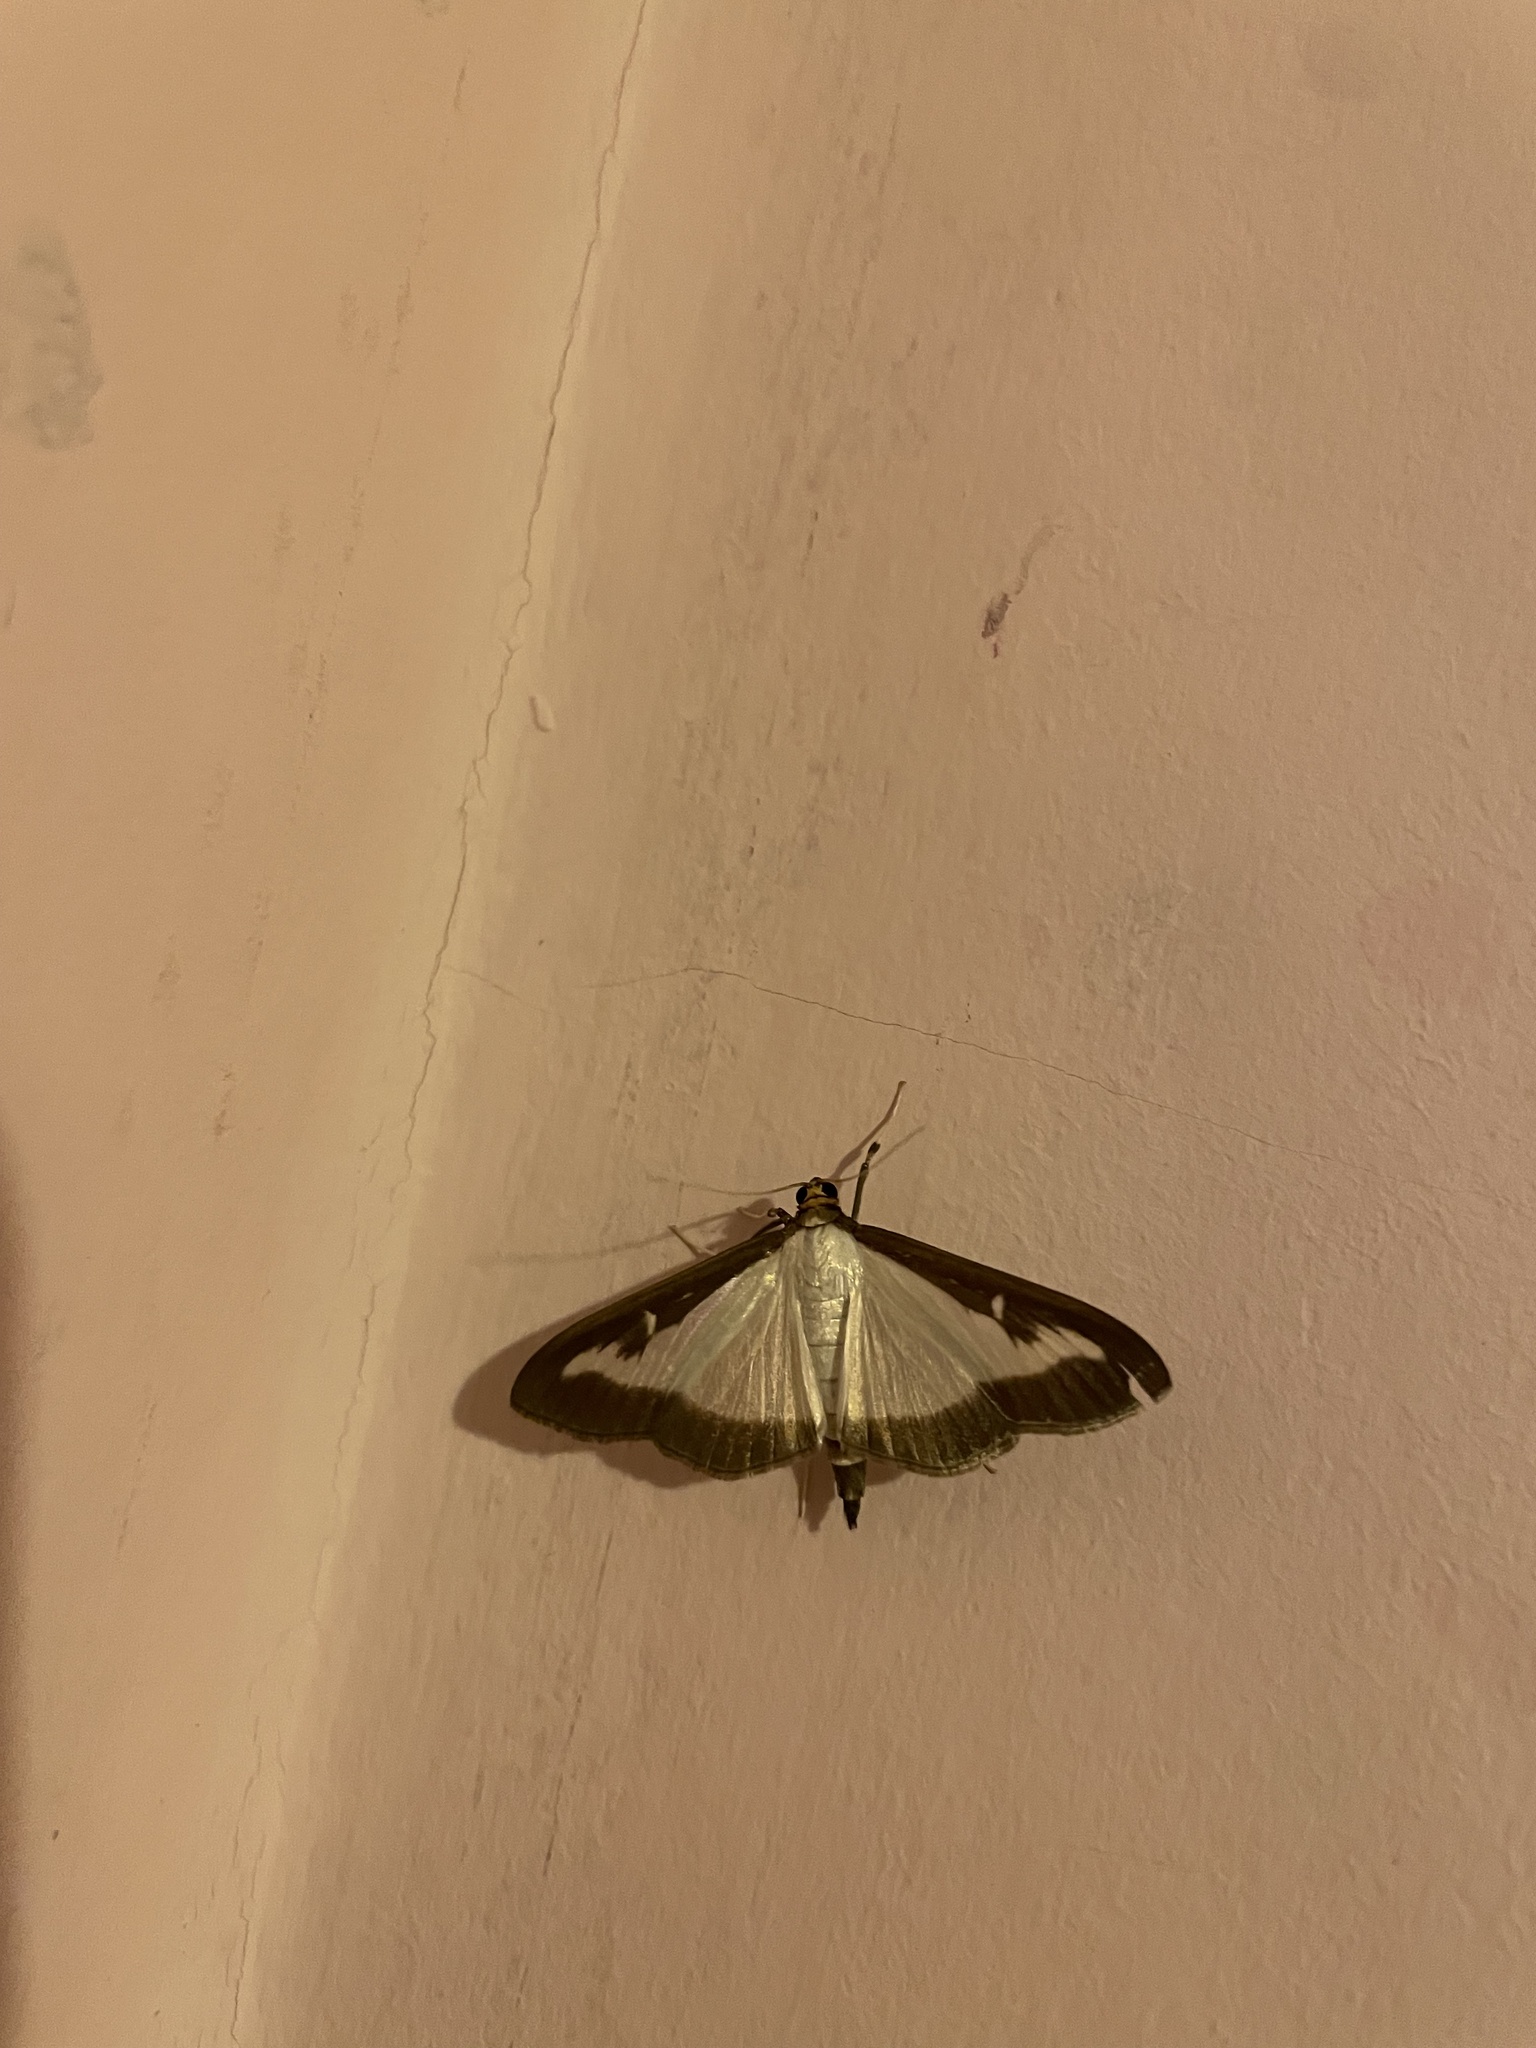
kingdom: Animalia
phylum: Arthropoda
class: Insecta
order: Lepidoptera
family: Crambidae
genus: Cydalima
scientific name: Cydalima perspectalis
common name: Box tree moth
